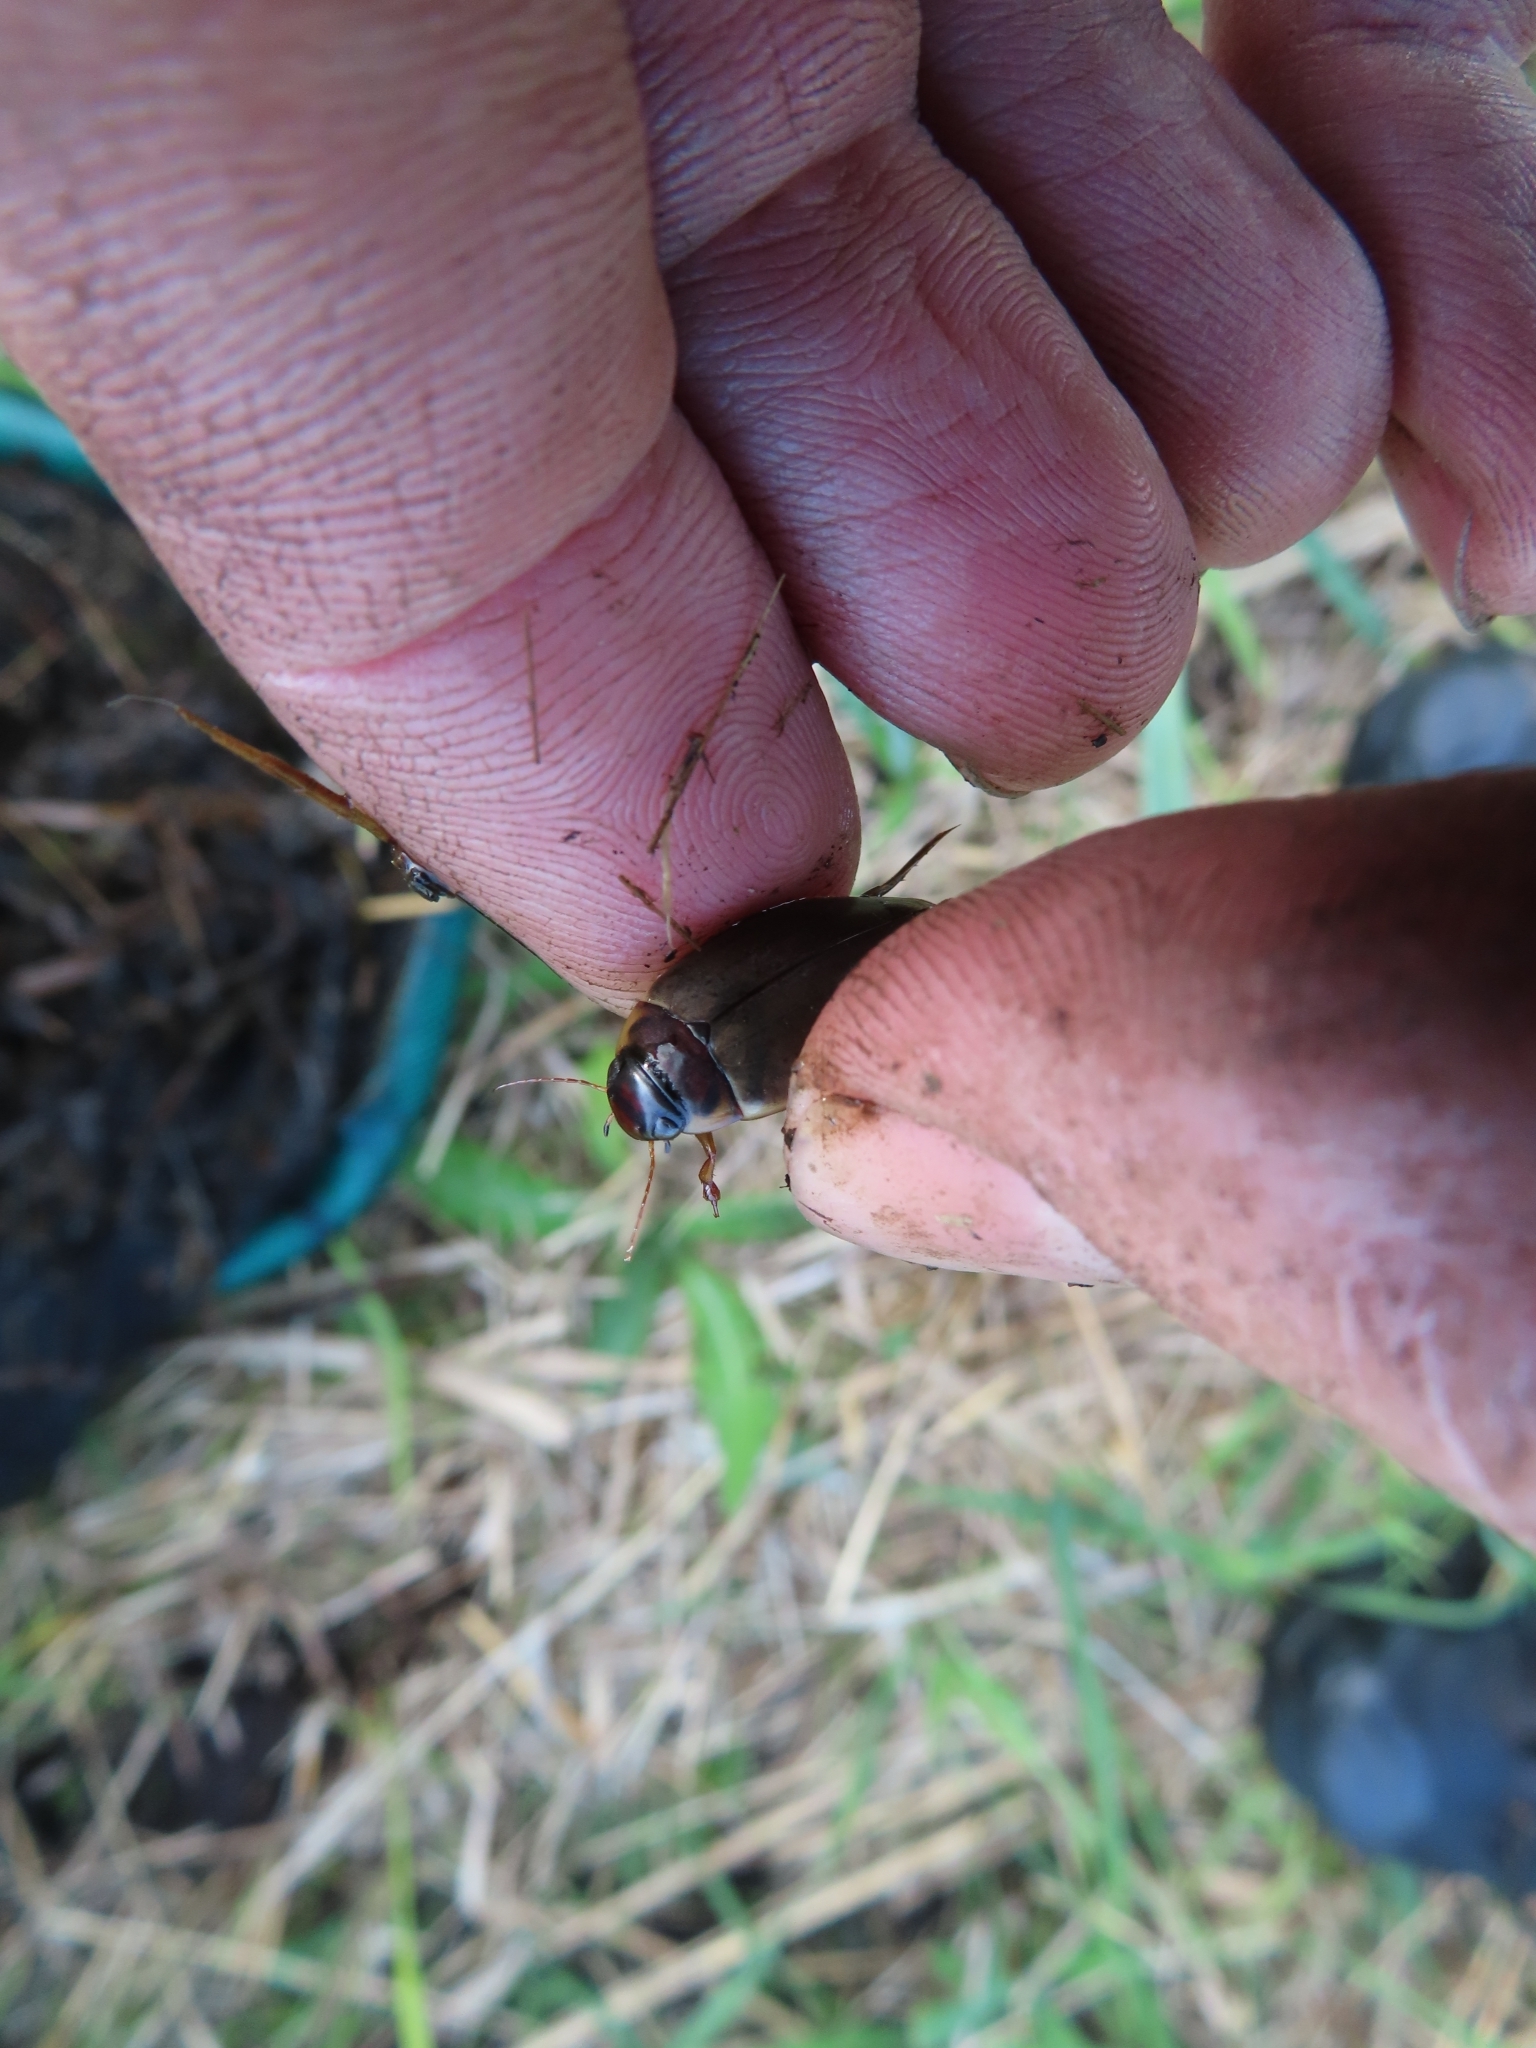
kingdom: Animalia
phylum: Arthropoda
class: Insecta
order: Coleoptera
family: Dytiscidae
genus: Colymbetes
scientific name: Colymbetes fuscus
